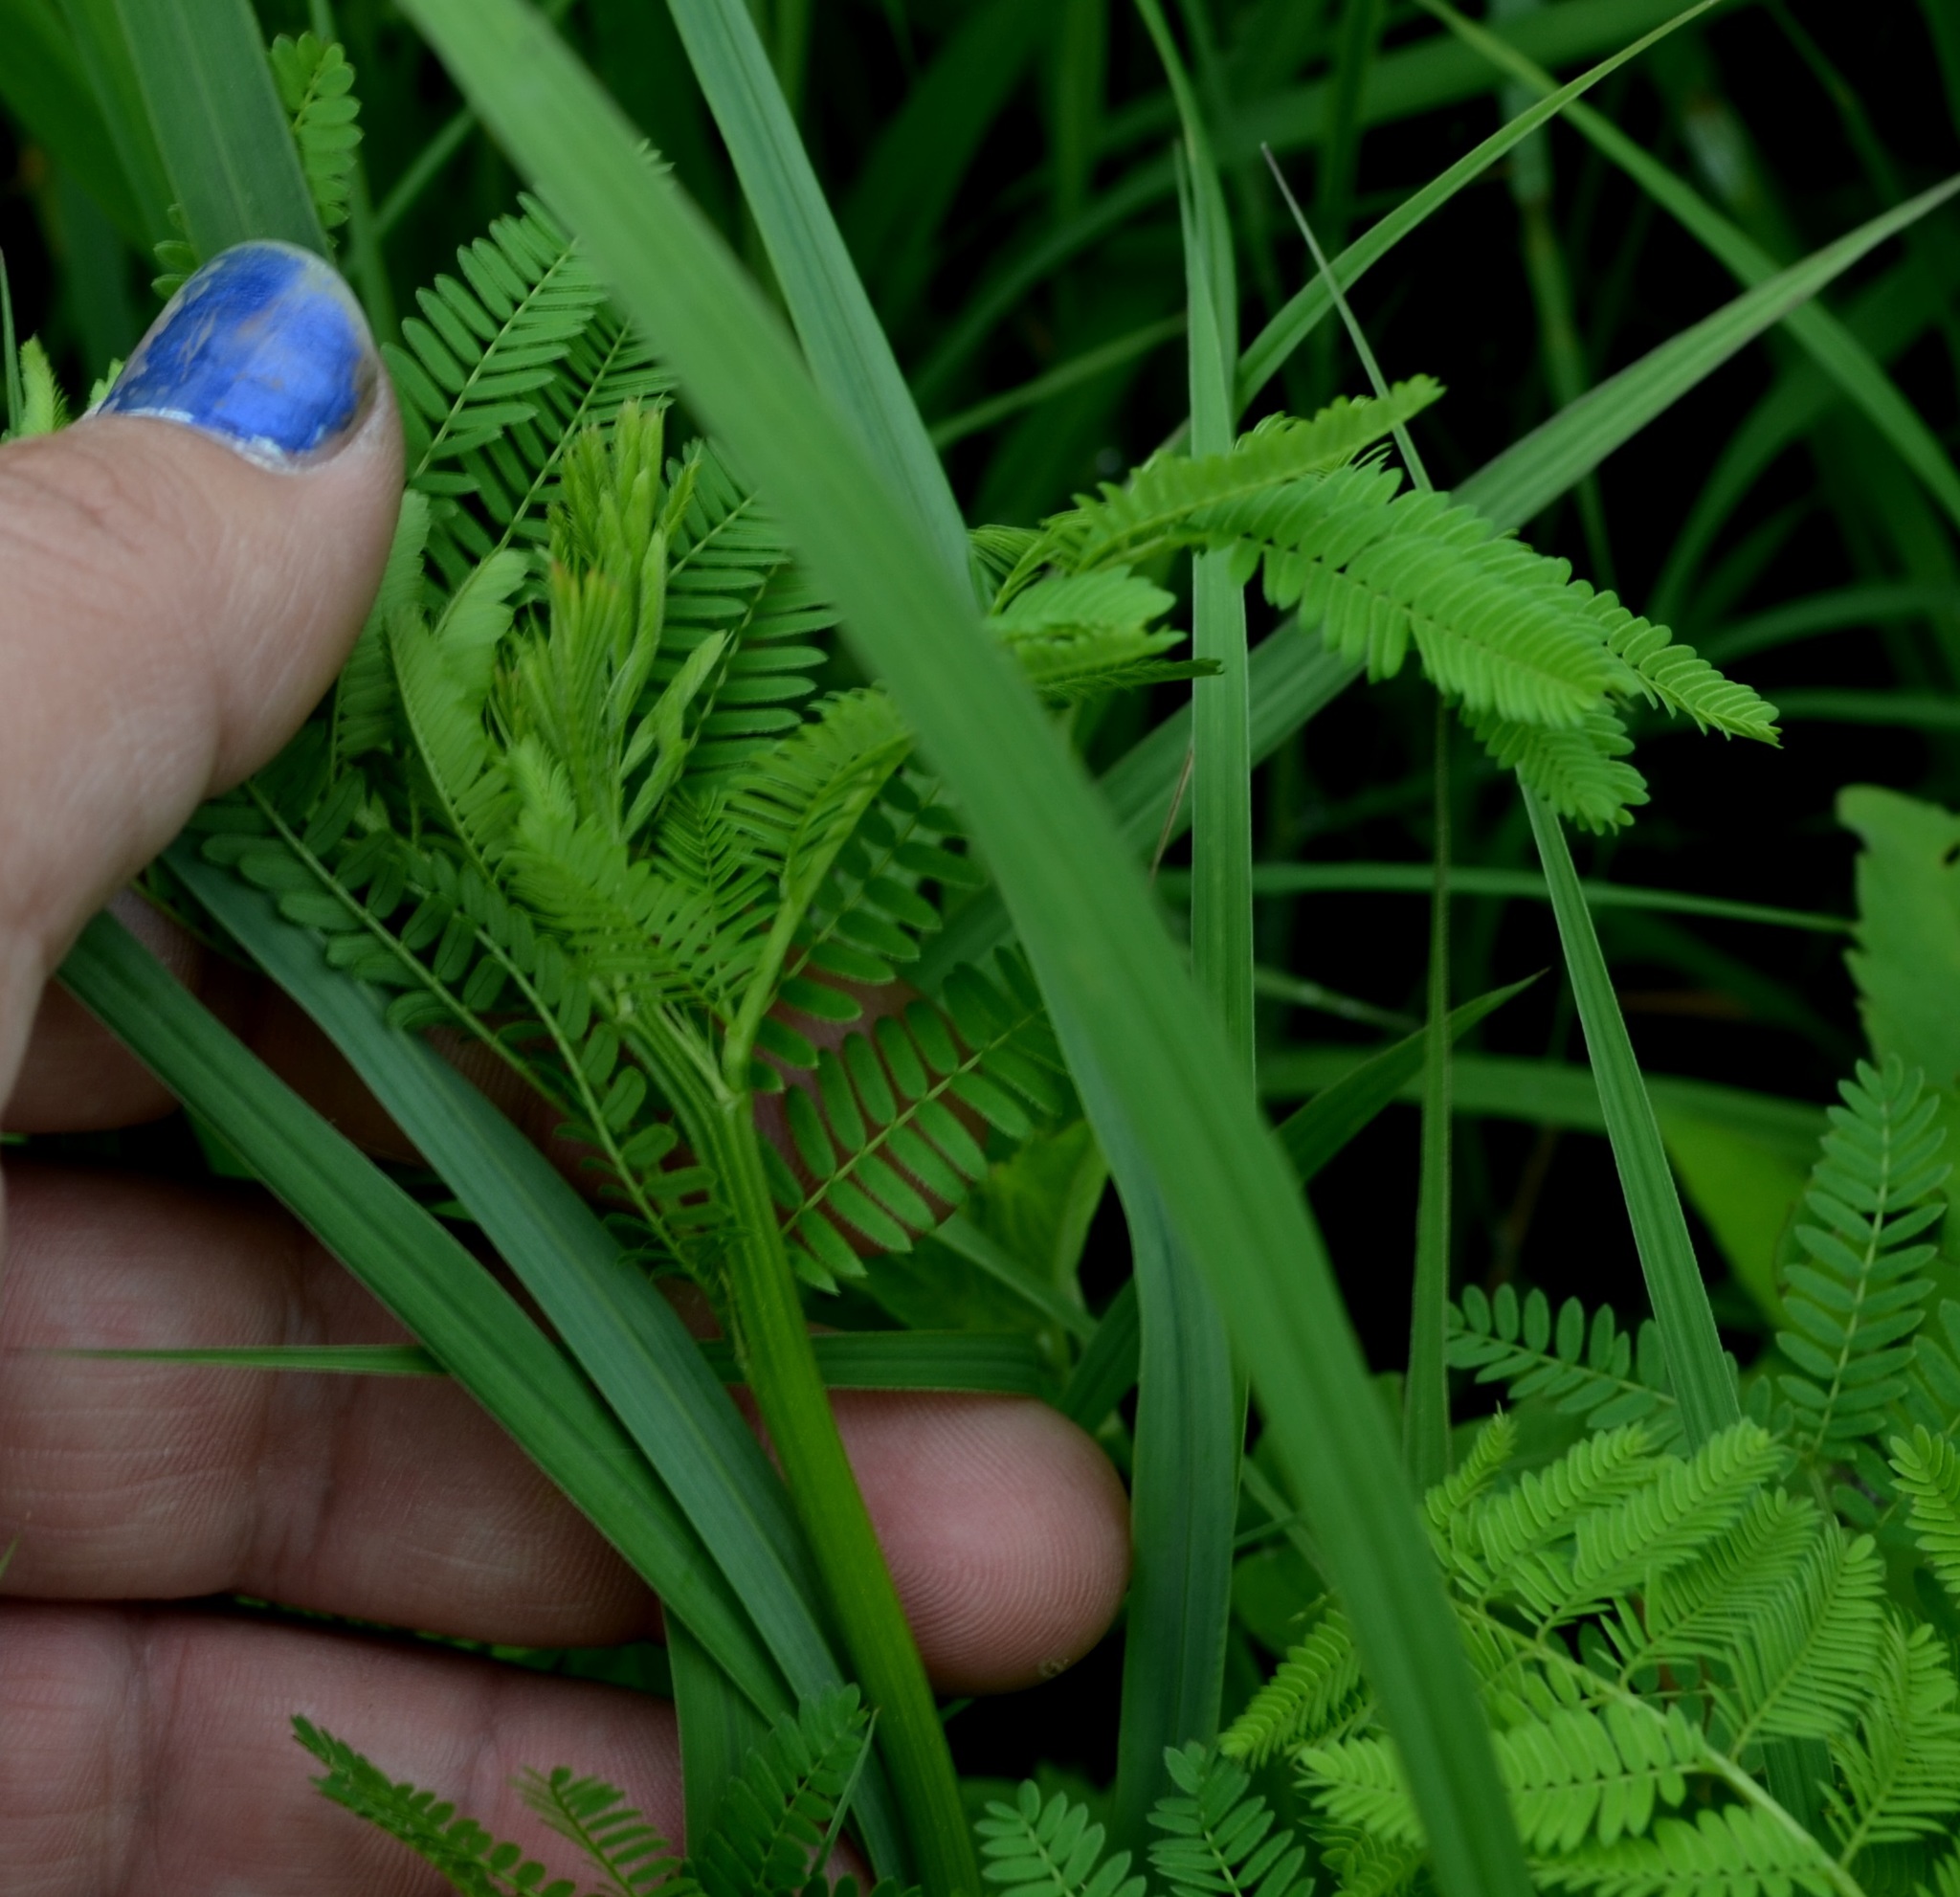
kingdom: Plantae
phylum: Tracheophyta
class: Magnoliopsida
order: Fabales
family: Fabaceae
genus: Desmanthus
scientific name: Desmanthus illinoensis
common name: Illinois bundle-flower
